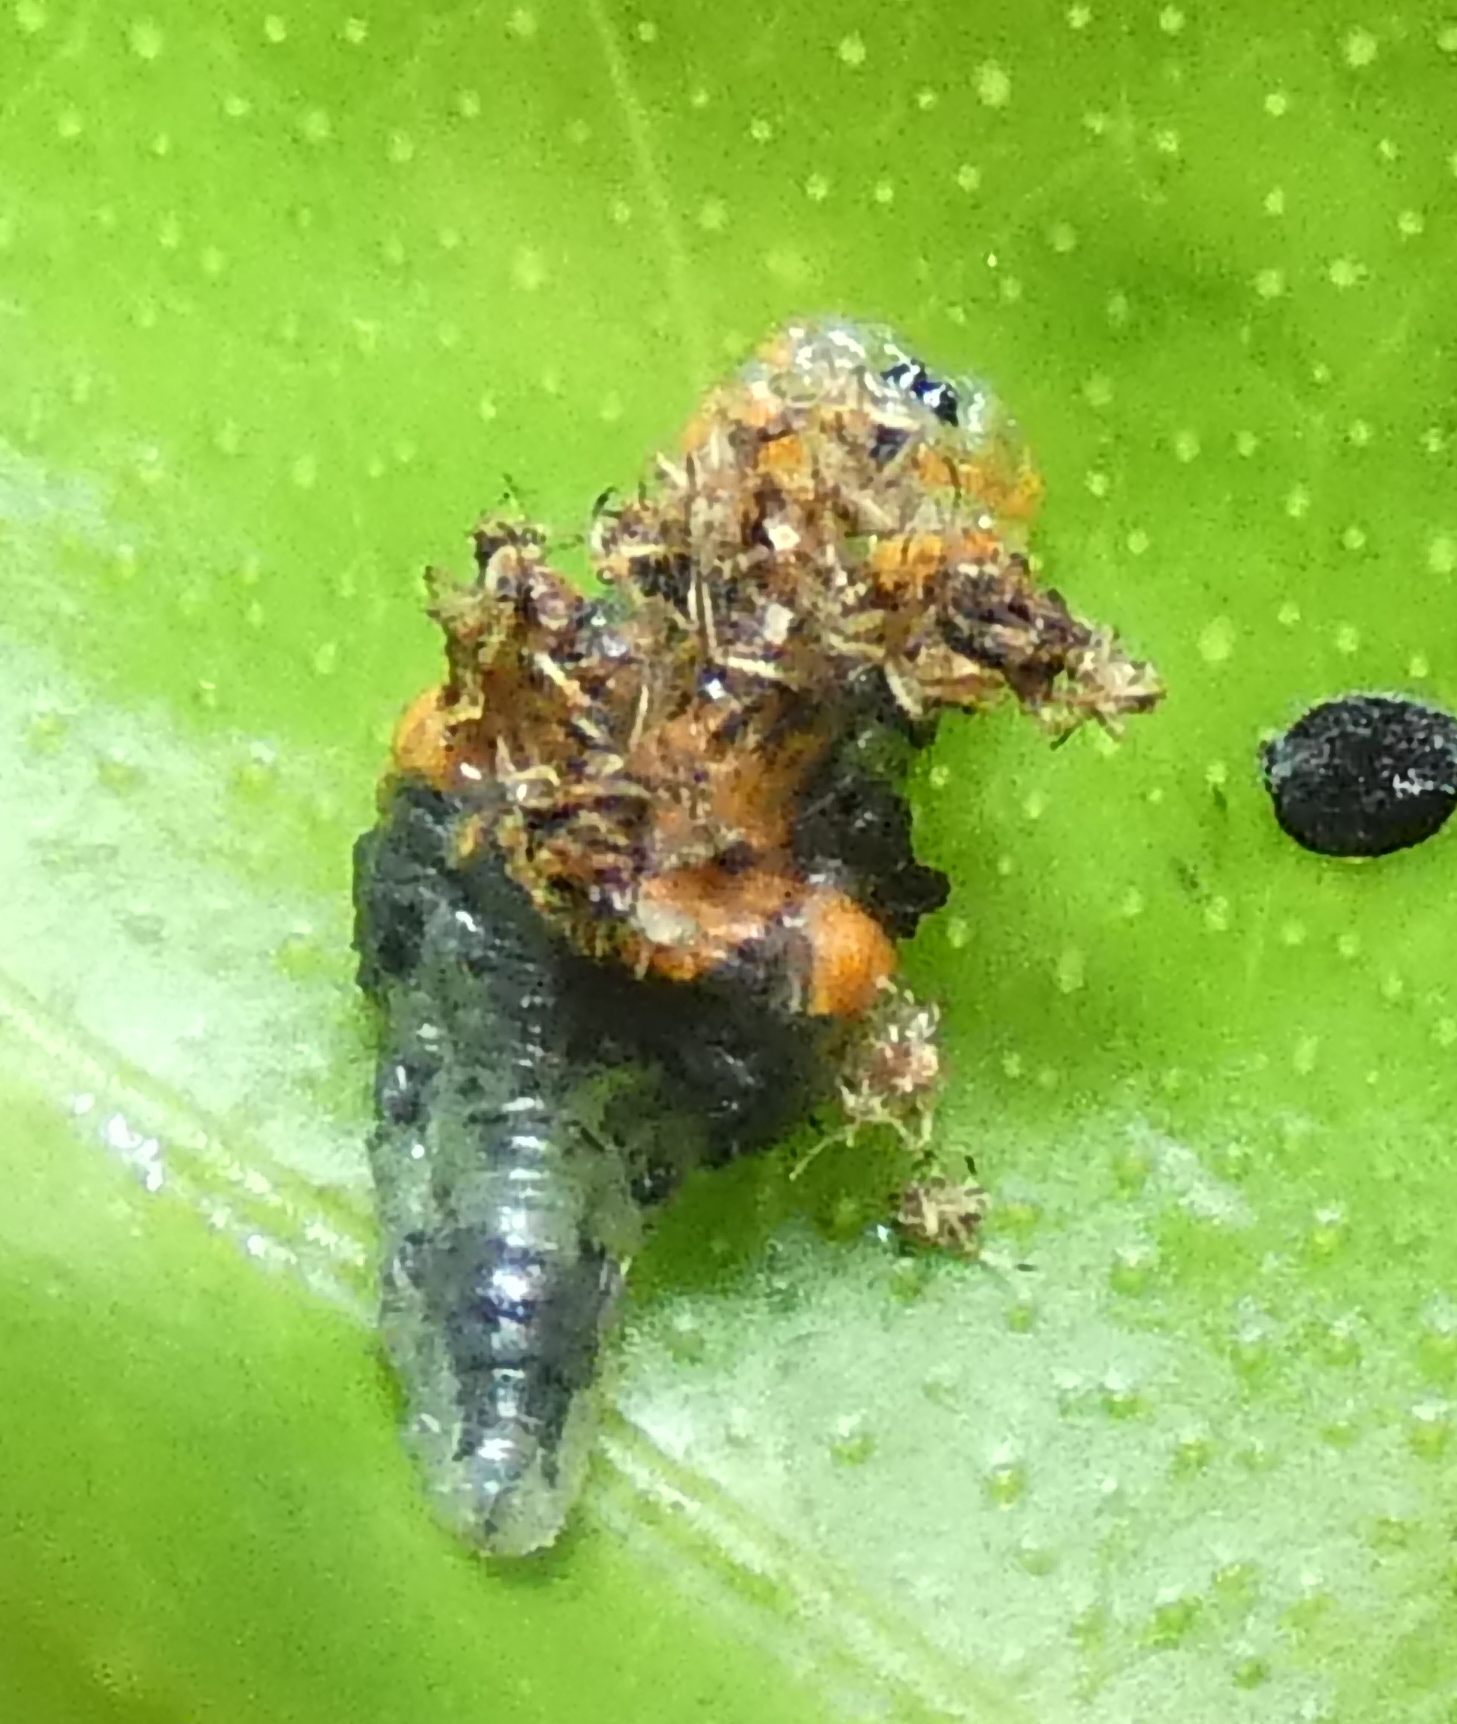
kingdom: Animalia
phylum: Arthropoda
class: Insecta
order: Diptera
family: Syrphidae
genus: Ocyptamus
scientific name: Ocyptamus gastrostactus
